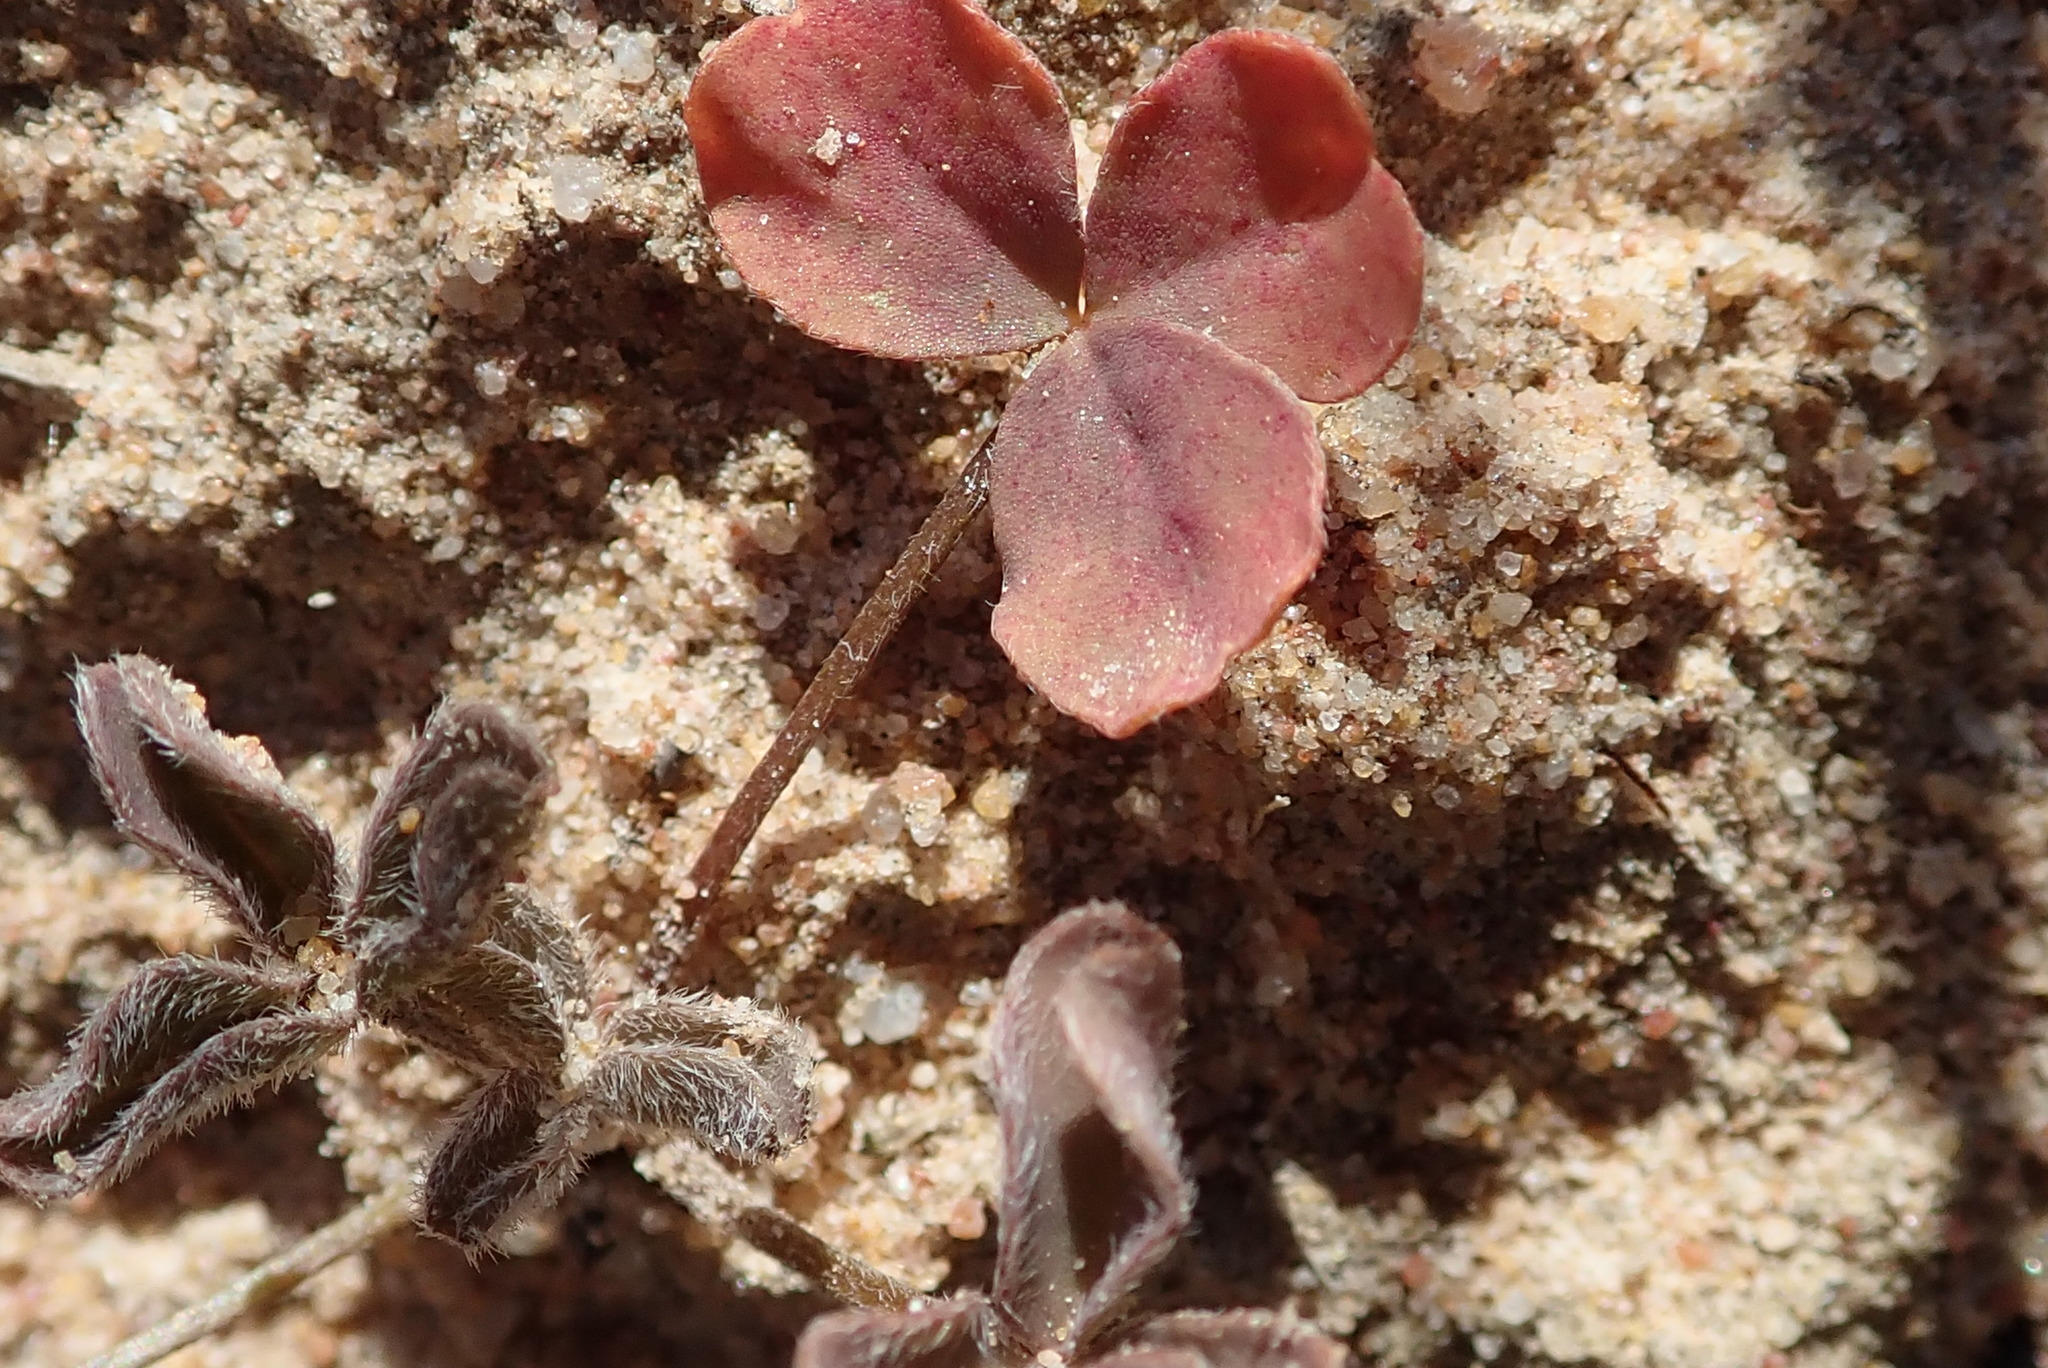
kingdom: Plantae
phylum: Tracheophyta
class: Magnoliopsida
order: Oxalidales
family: Oxalidaceae
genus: Oxalis
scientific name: Oxalis obtusa
